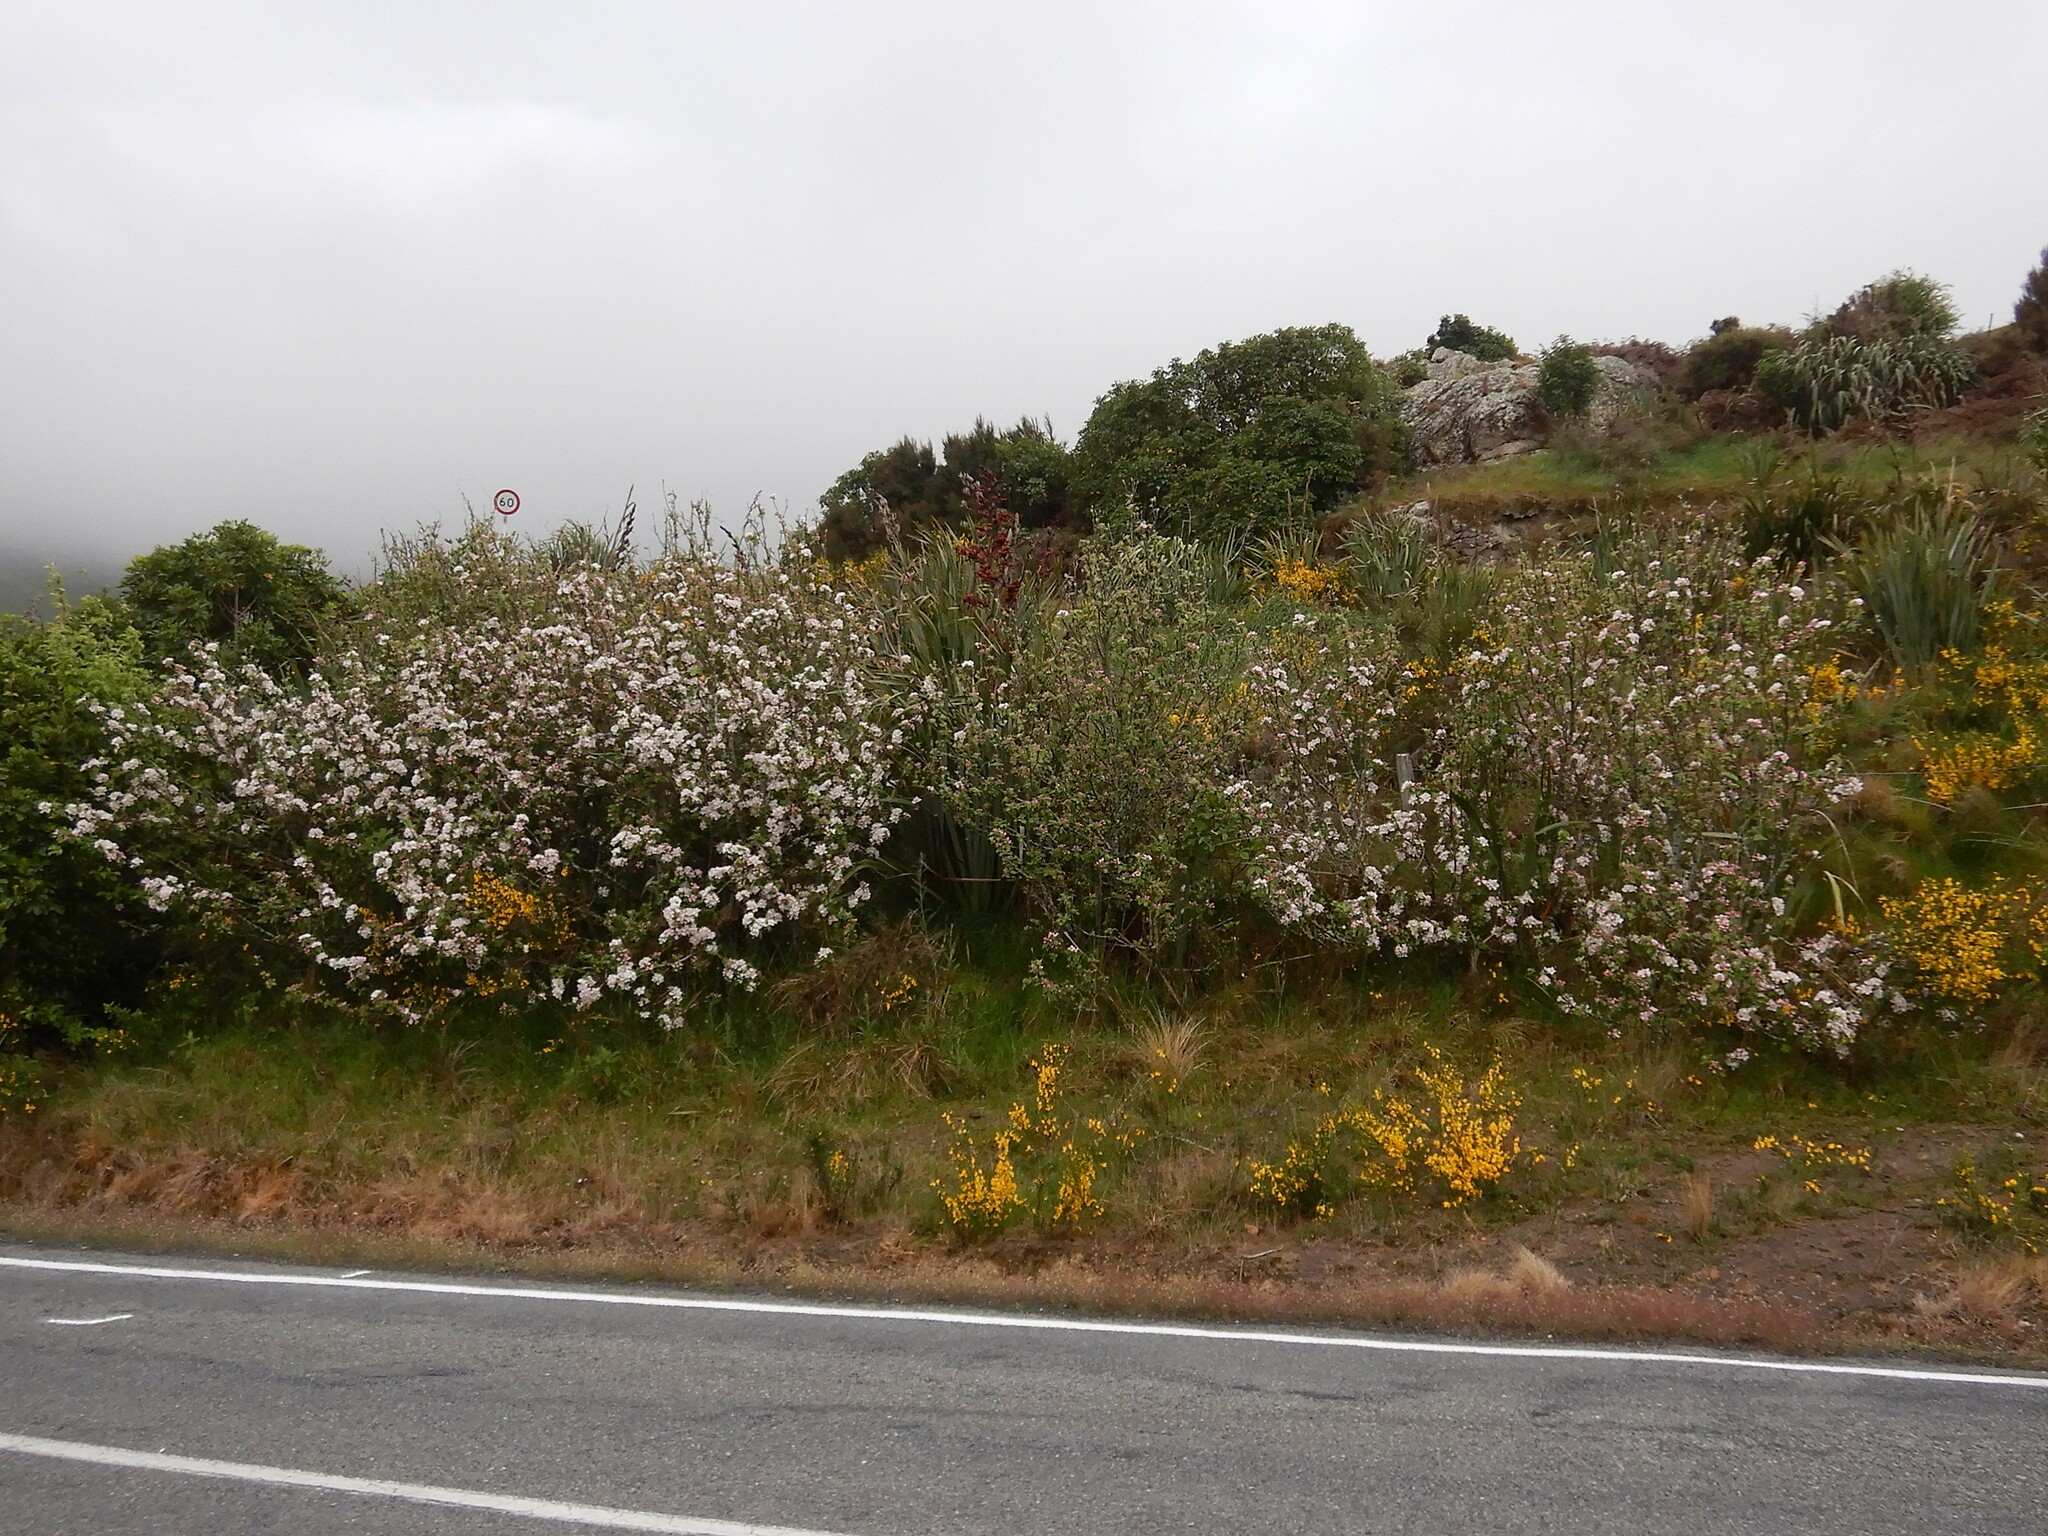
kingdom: Plantae
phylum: Tracheophyta
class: Magnoliopsida
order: Rosales
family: Rosaceae
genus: Malus
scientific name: Malus domestica
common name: Apple
